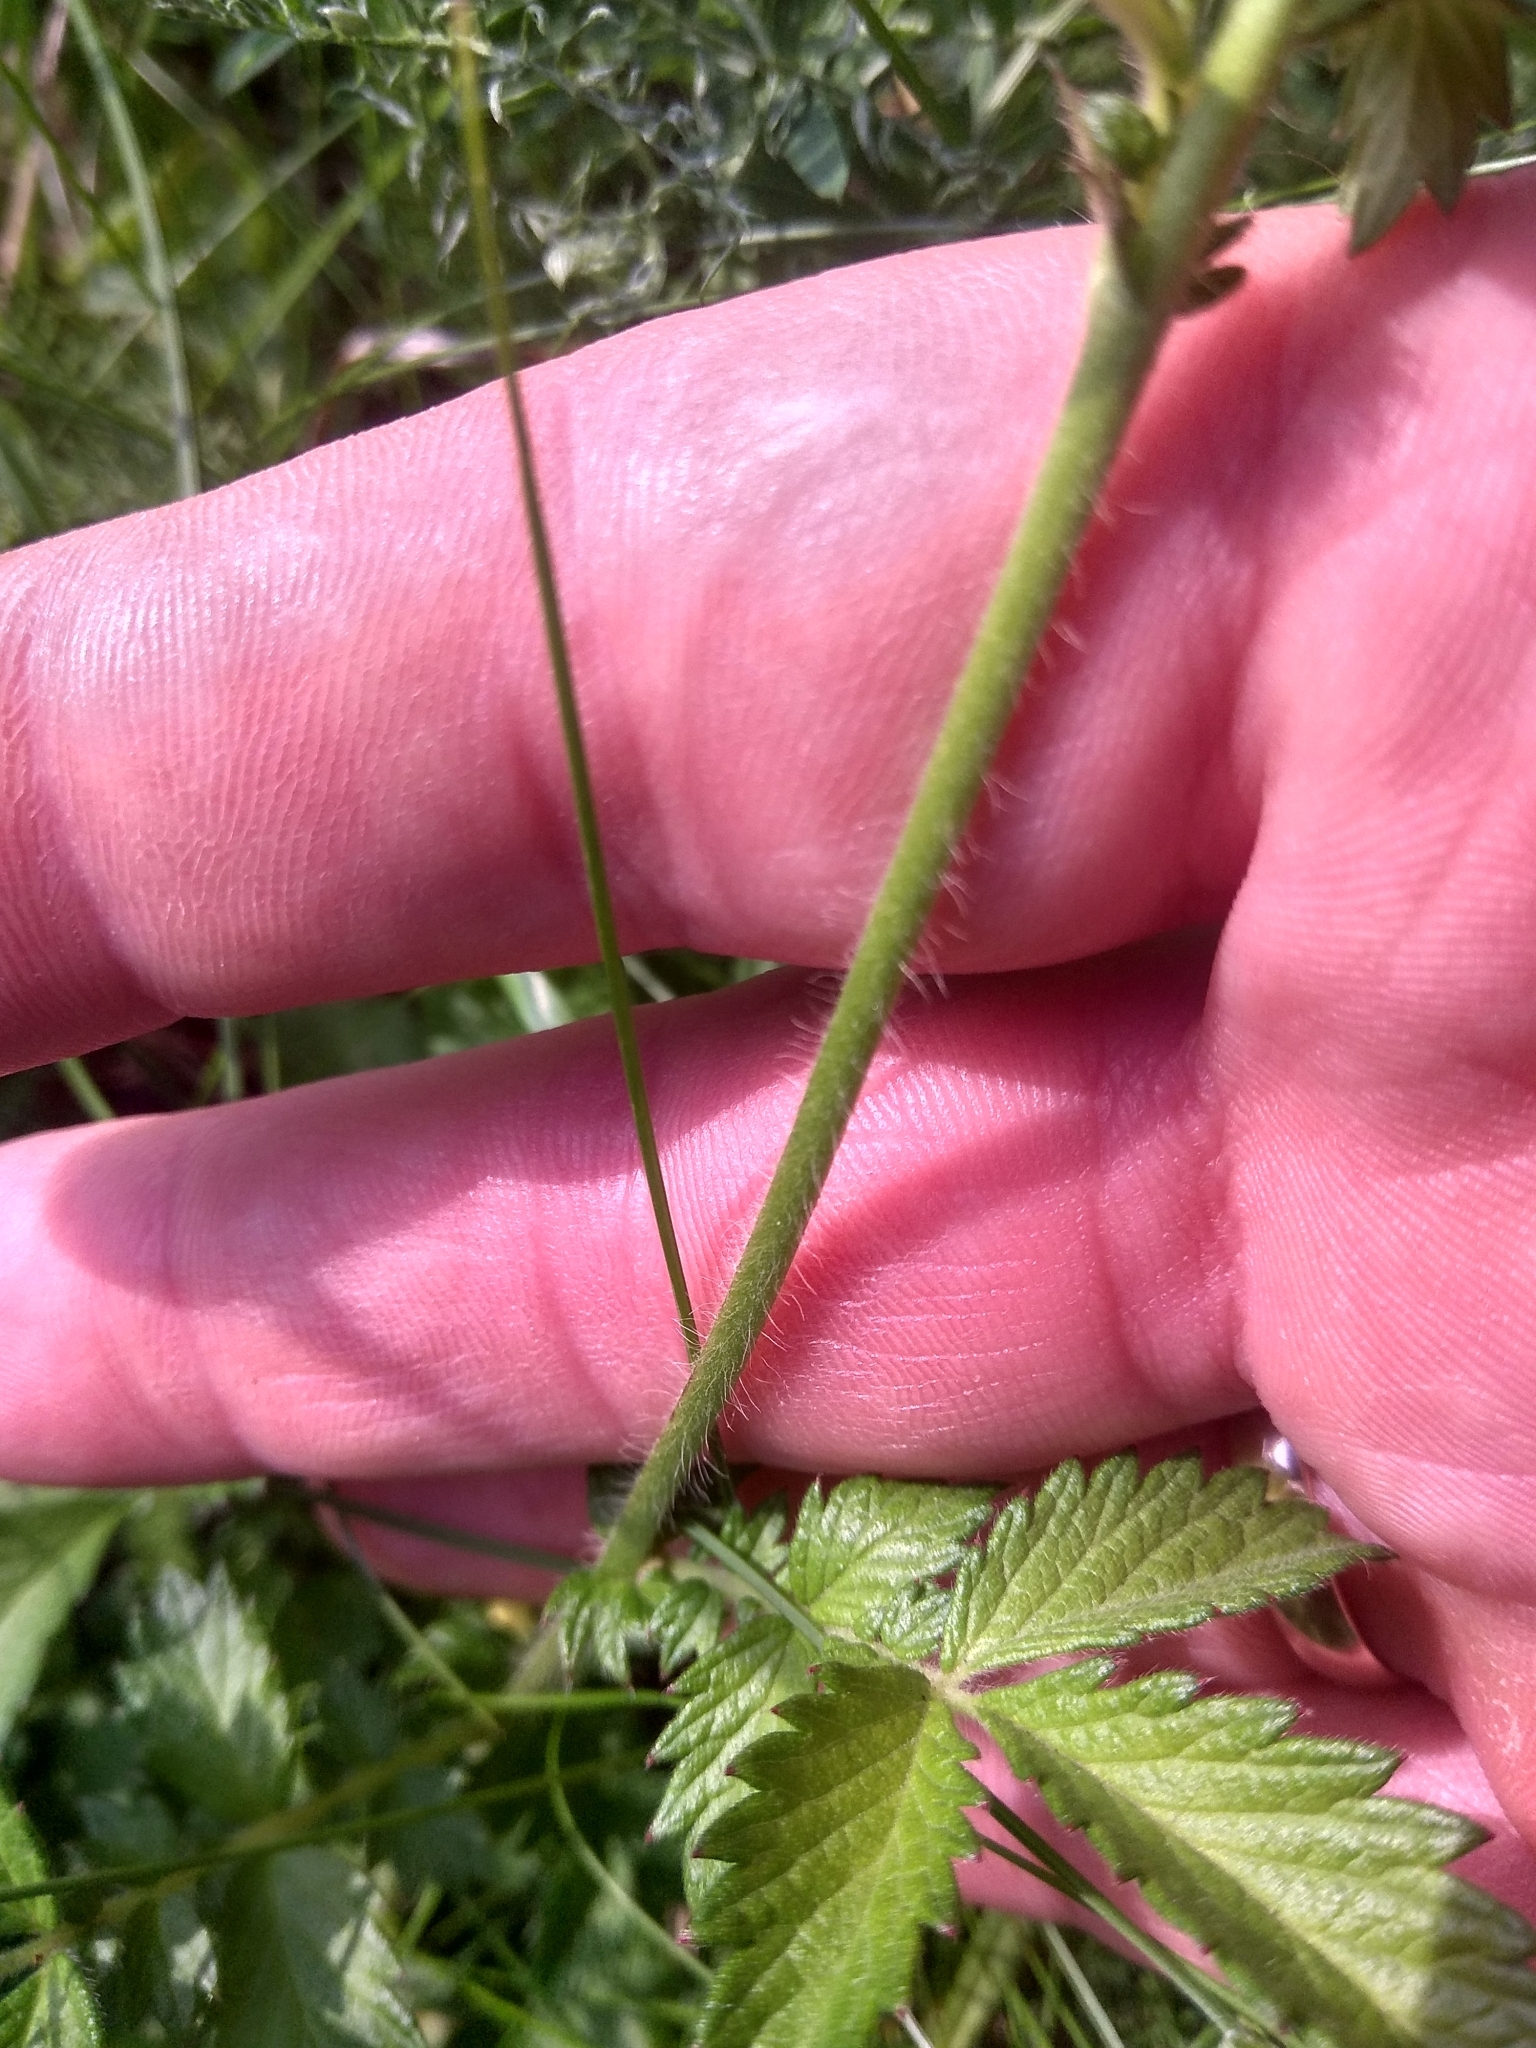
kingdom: Plantae
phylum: Tracheophyta
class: Magnoliopsida
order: Rosales
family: Rosaceae
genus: Agrimonia
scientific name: Agrimonia eupatoria
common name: Agrimony
